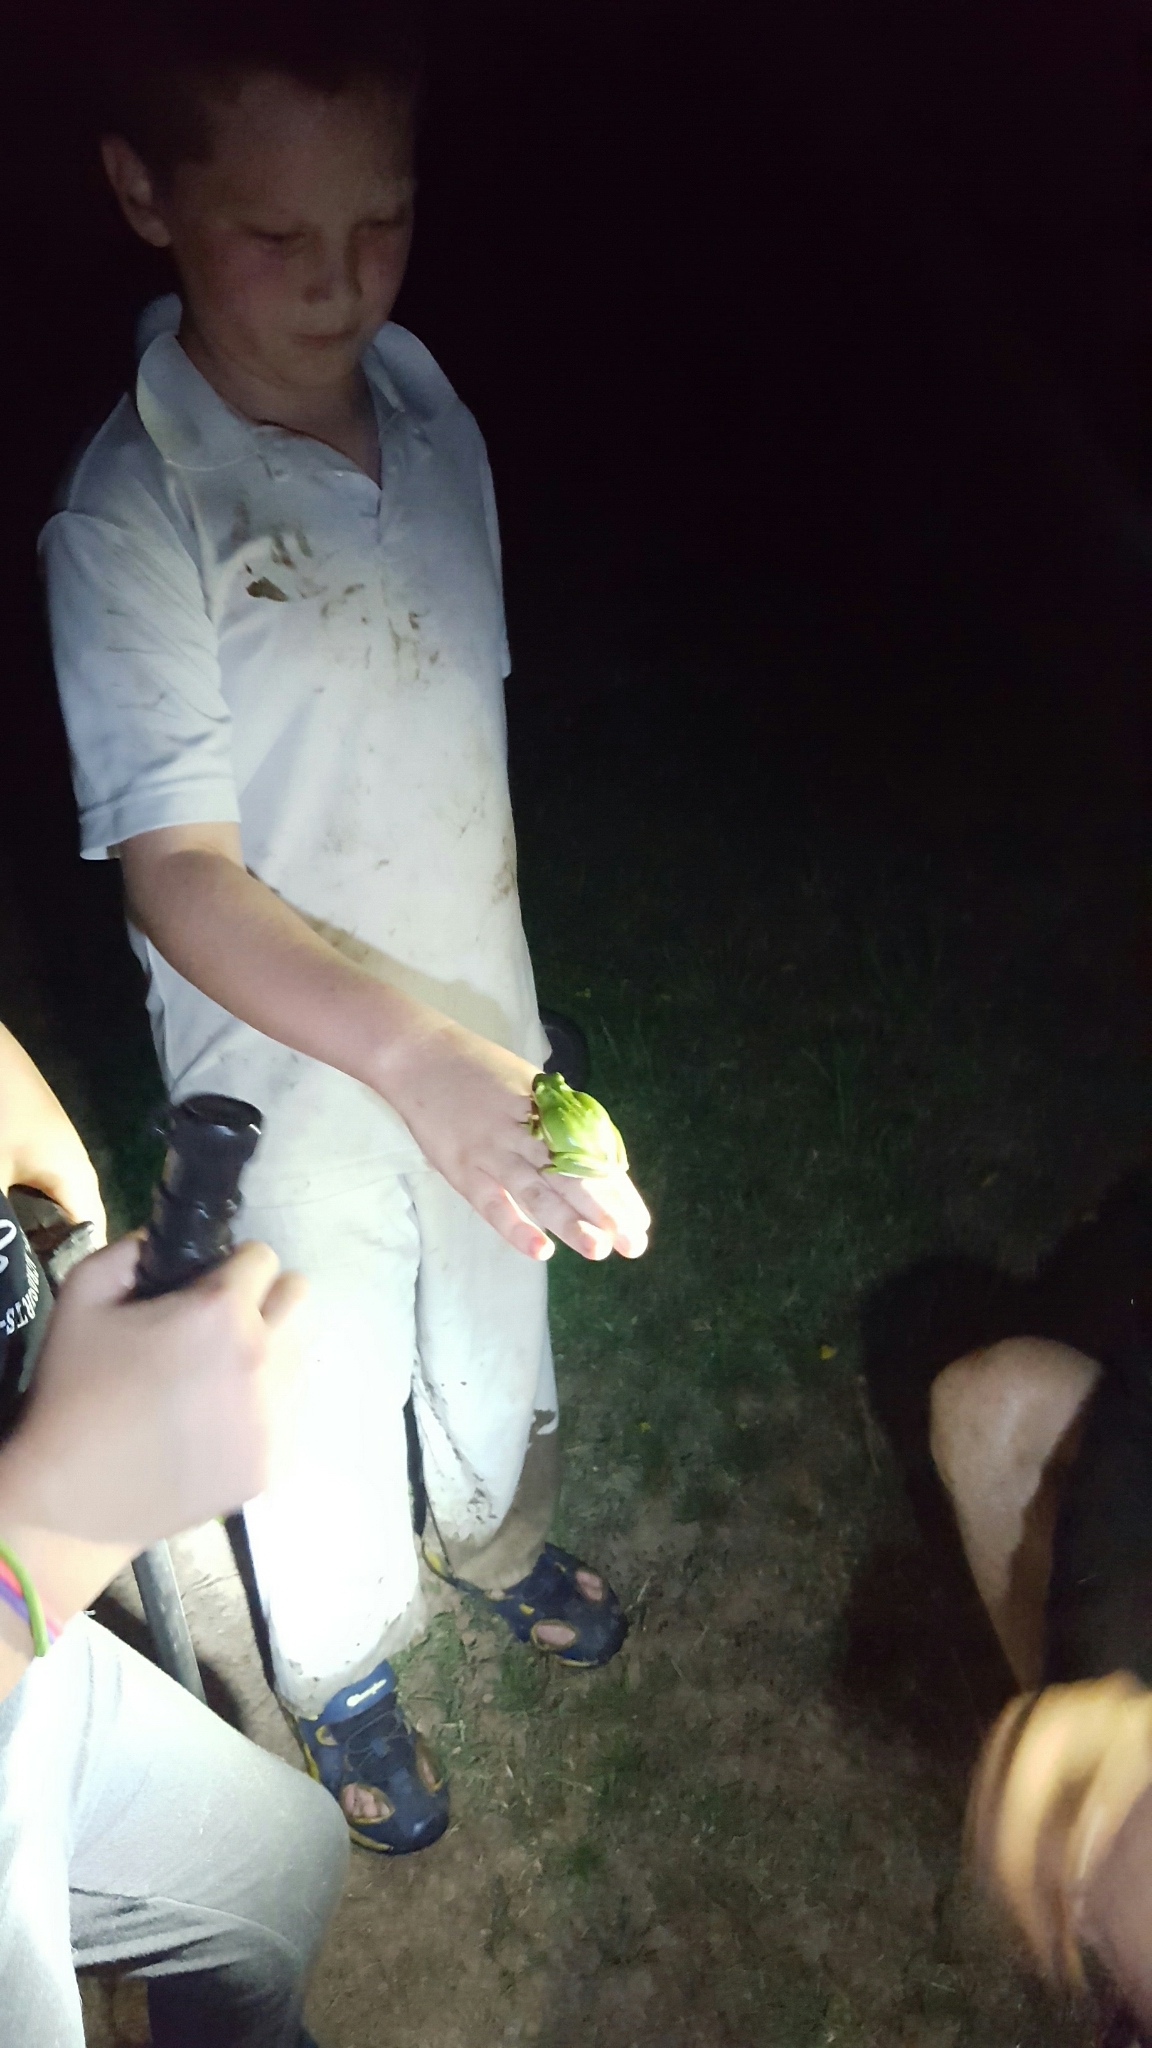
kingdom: Animalia
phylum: Chordata
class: Amphibia
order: Anura
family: Hylidae
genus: Dryophytes
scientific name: Dryophytes cinereus
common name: Green treefrog
